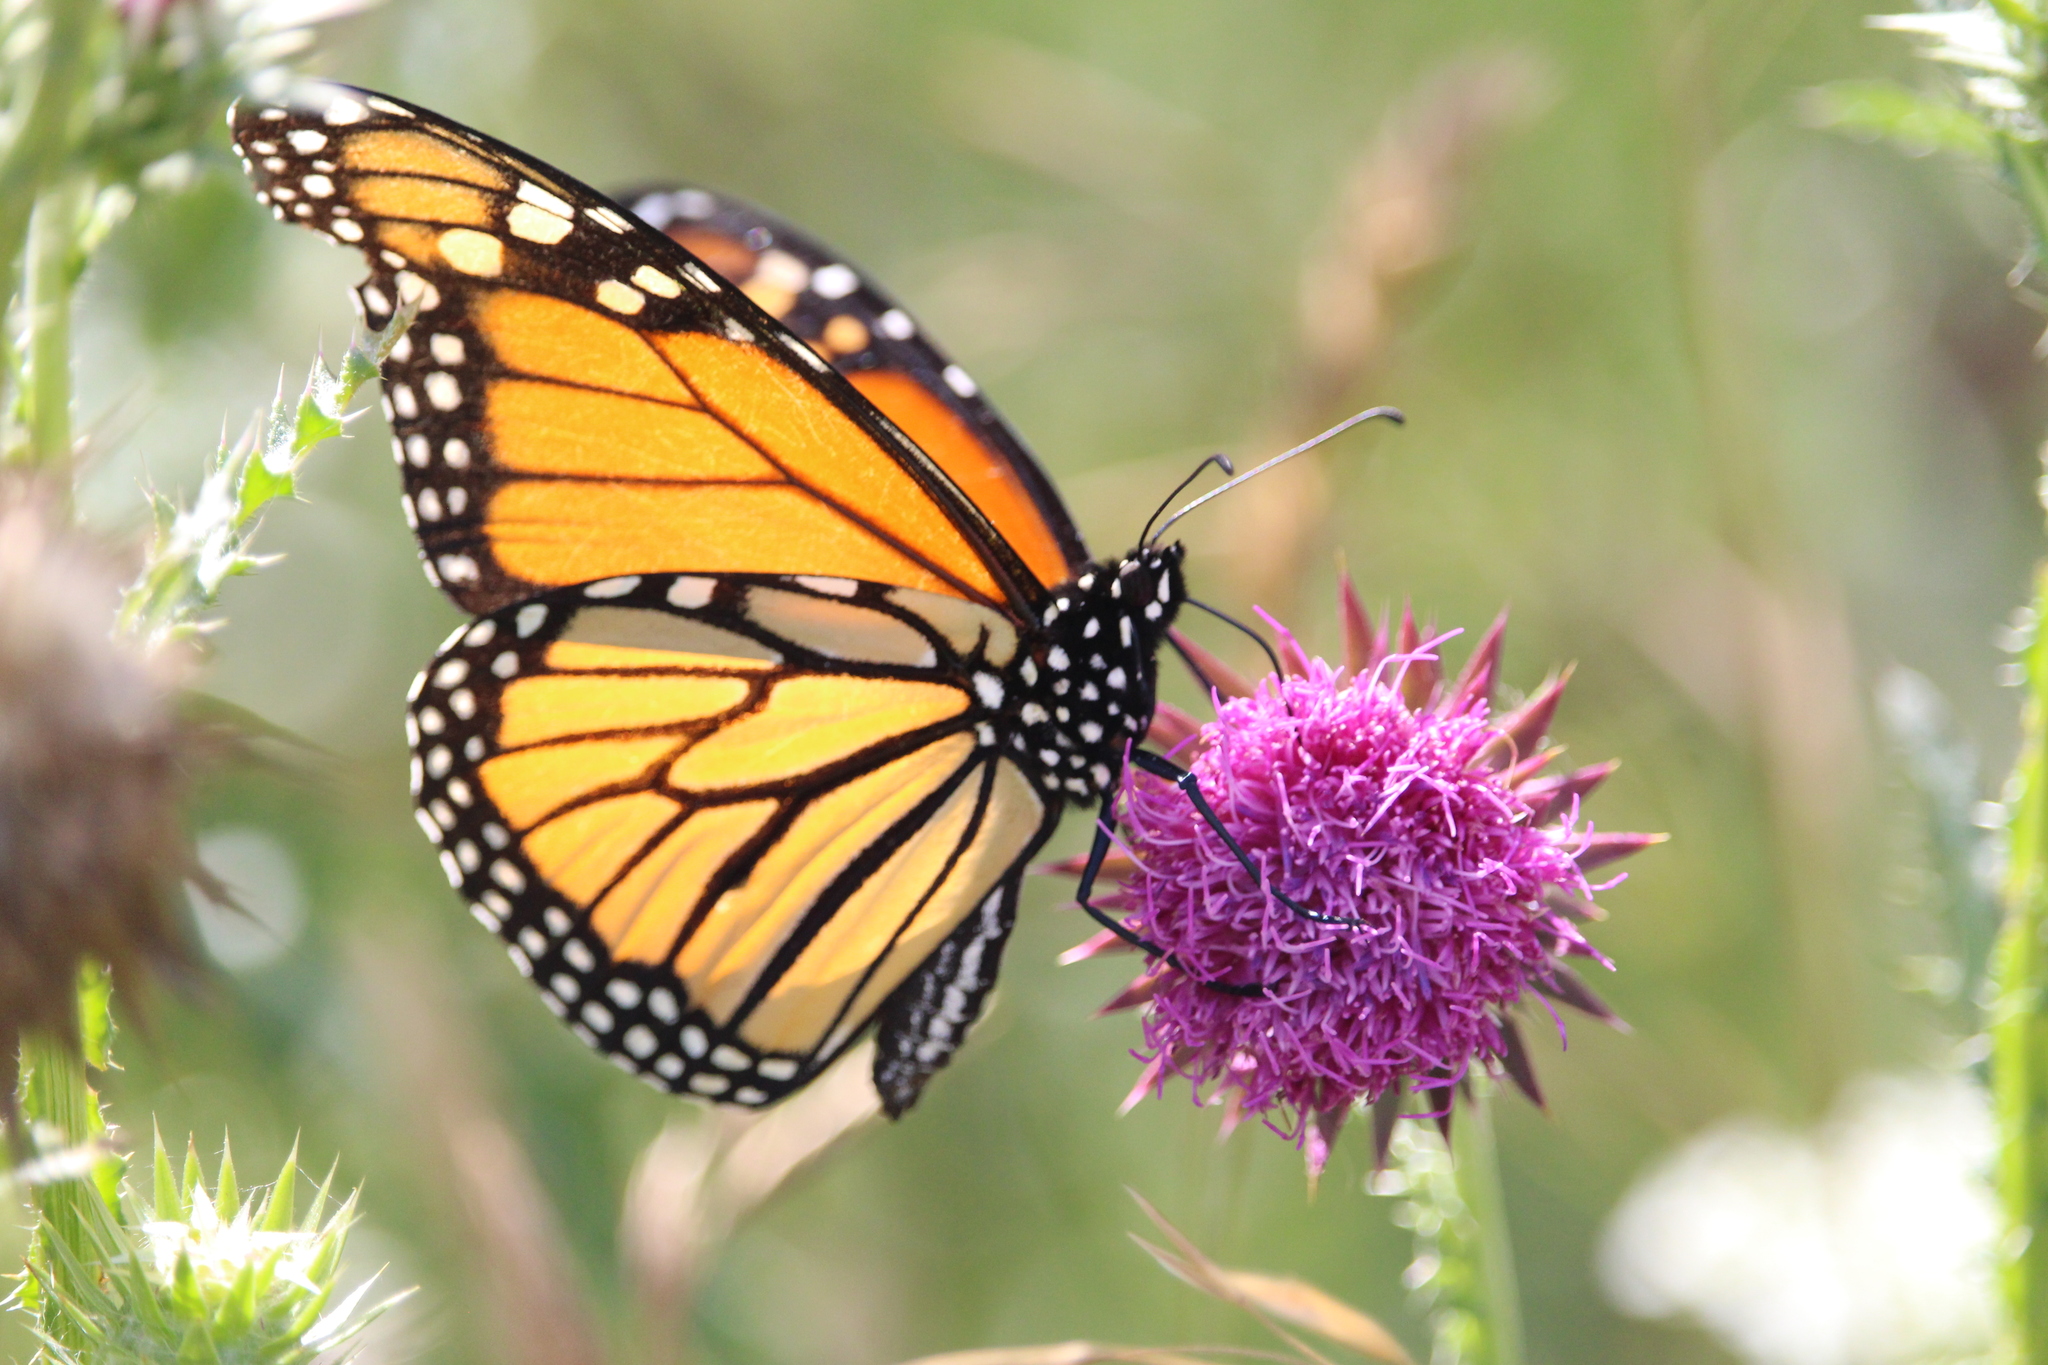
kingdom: Animalia
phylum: Arthropoda
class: Insecta
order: Lepidoptera
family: Nymphalidae
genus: Danaus
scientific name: Danaus plexippus
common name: Monarch
